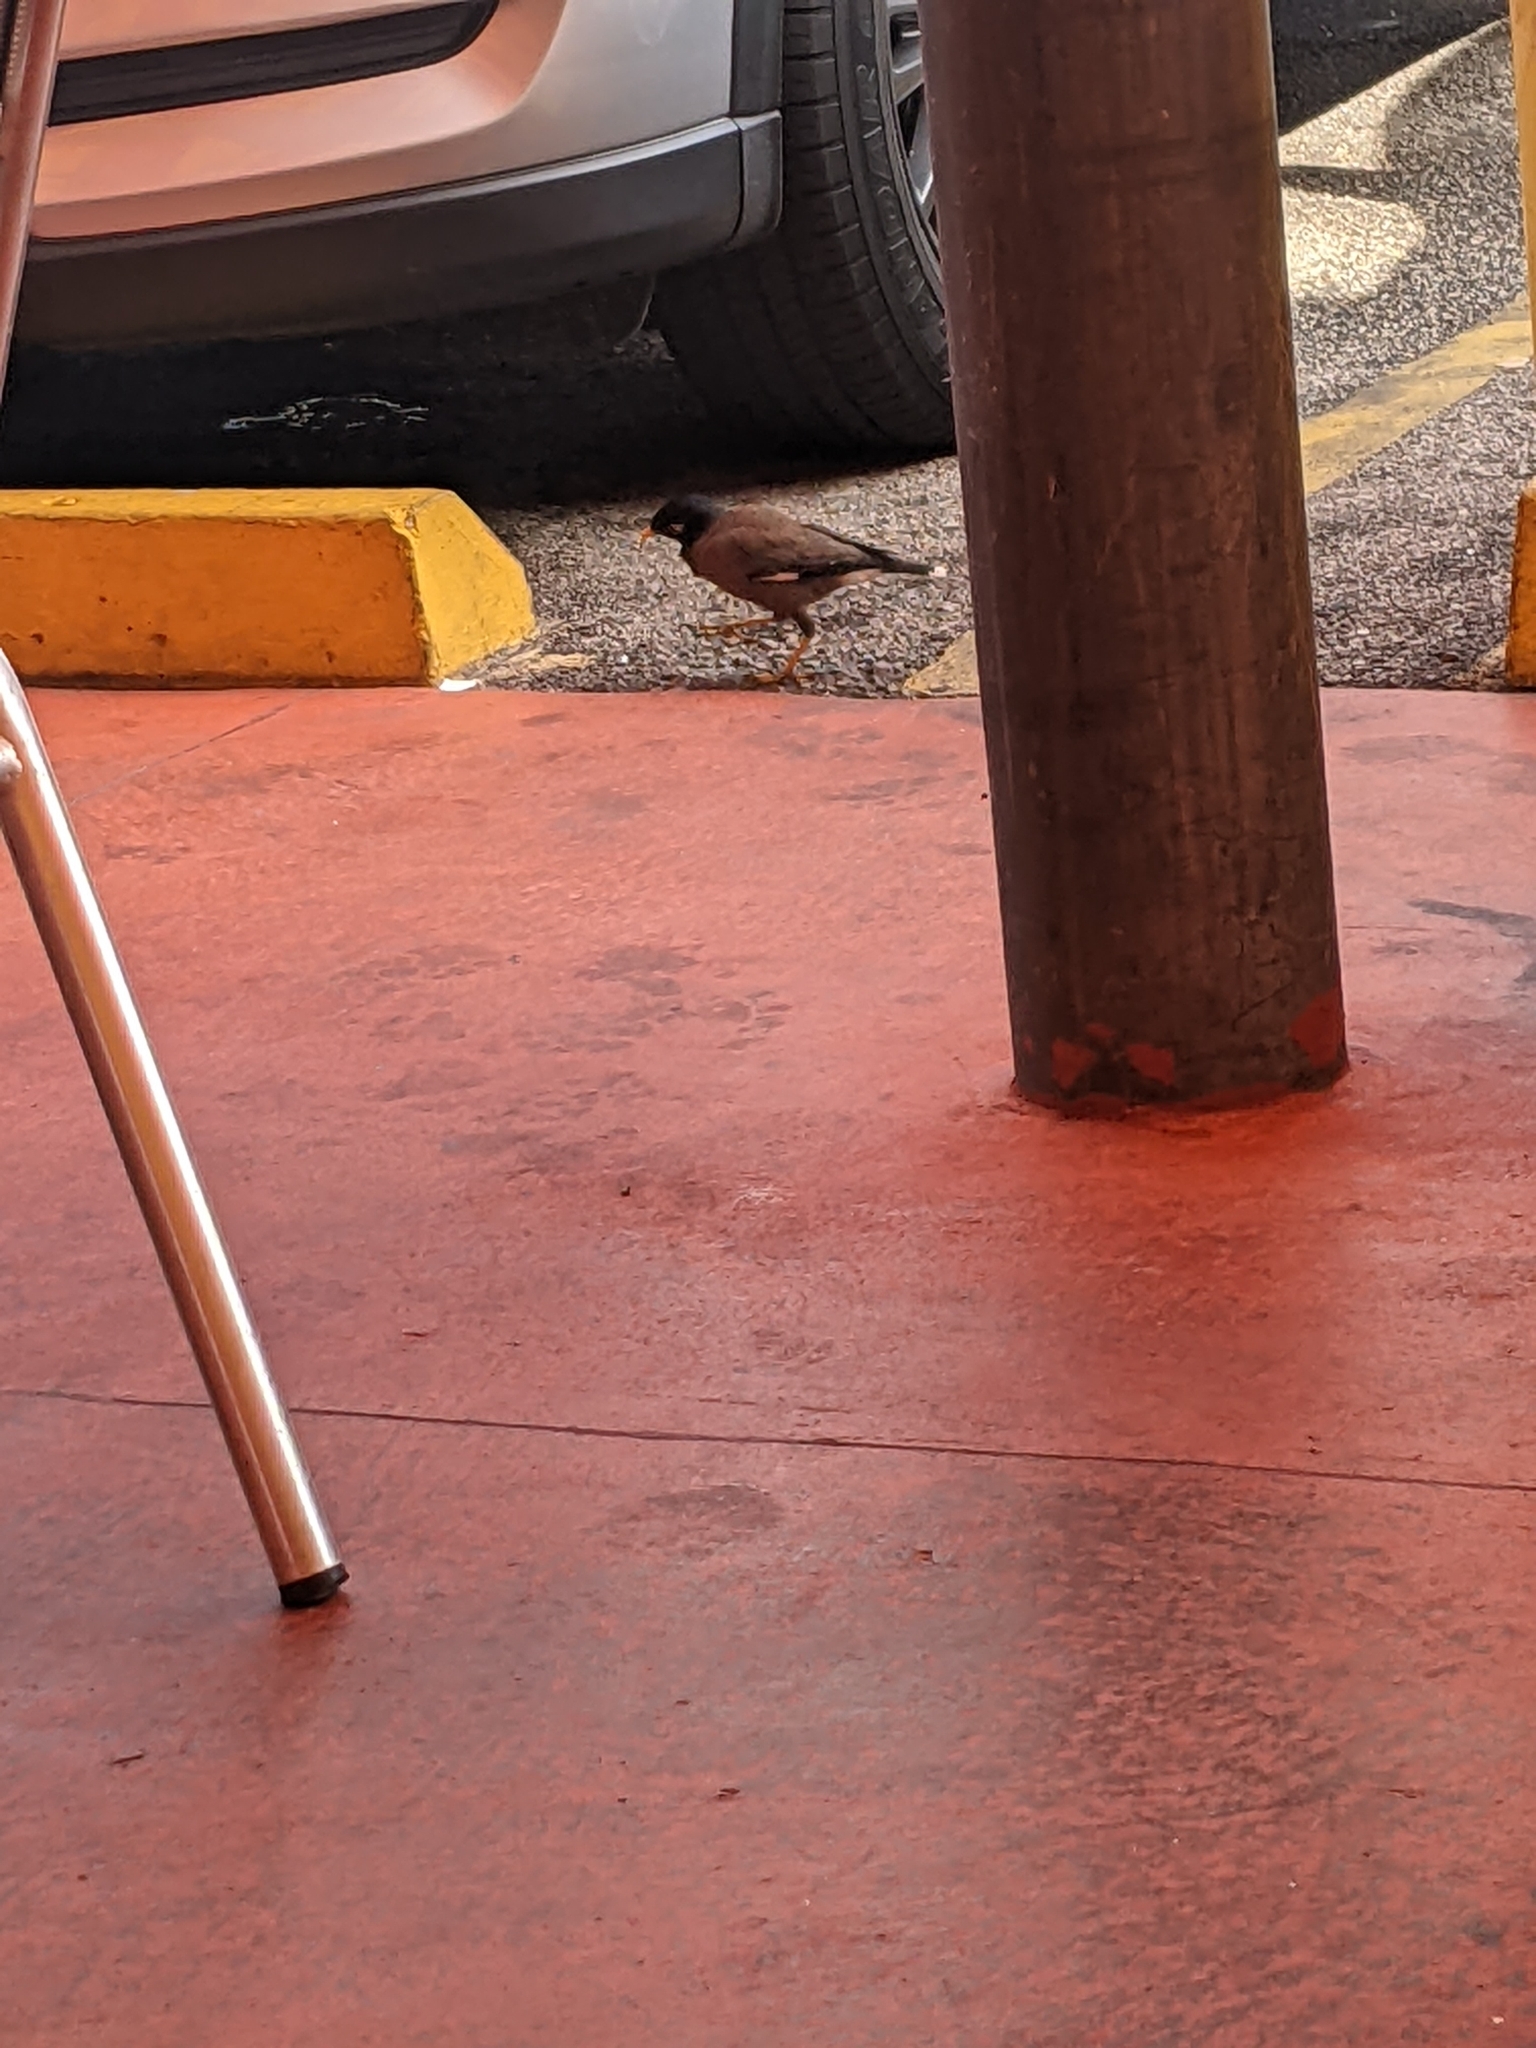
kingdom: Animalia
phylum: Chordata
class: Aves
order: Passeriformes
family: Sturnidae
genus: Acridotheres
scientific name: Acridotheres tristis
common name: Common myna
